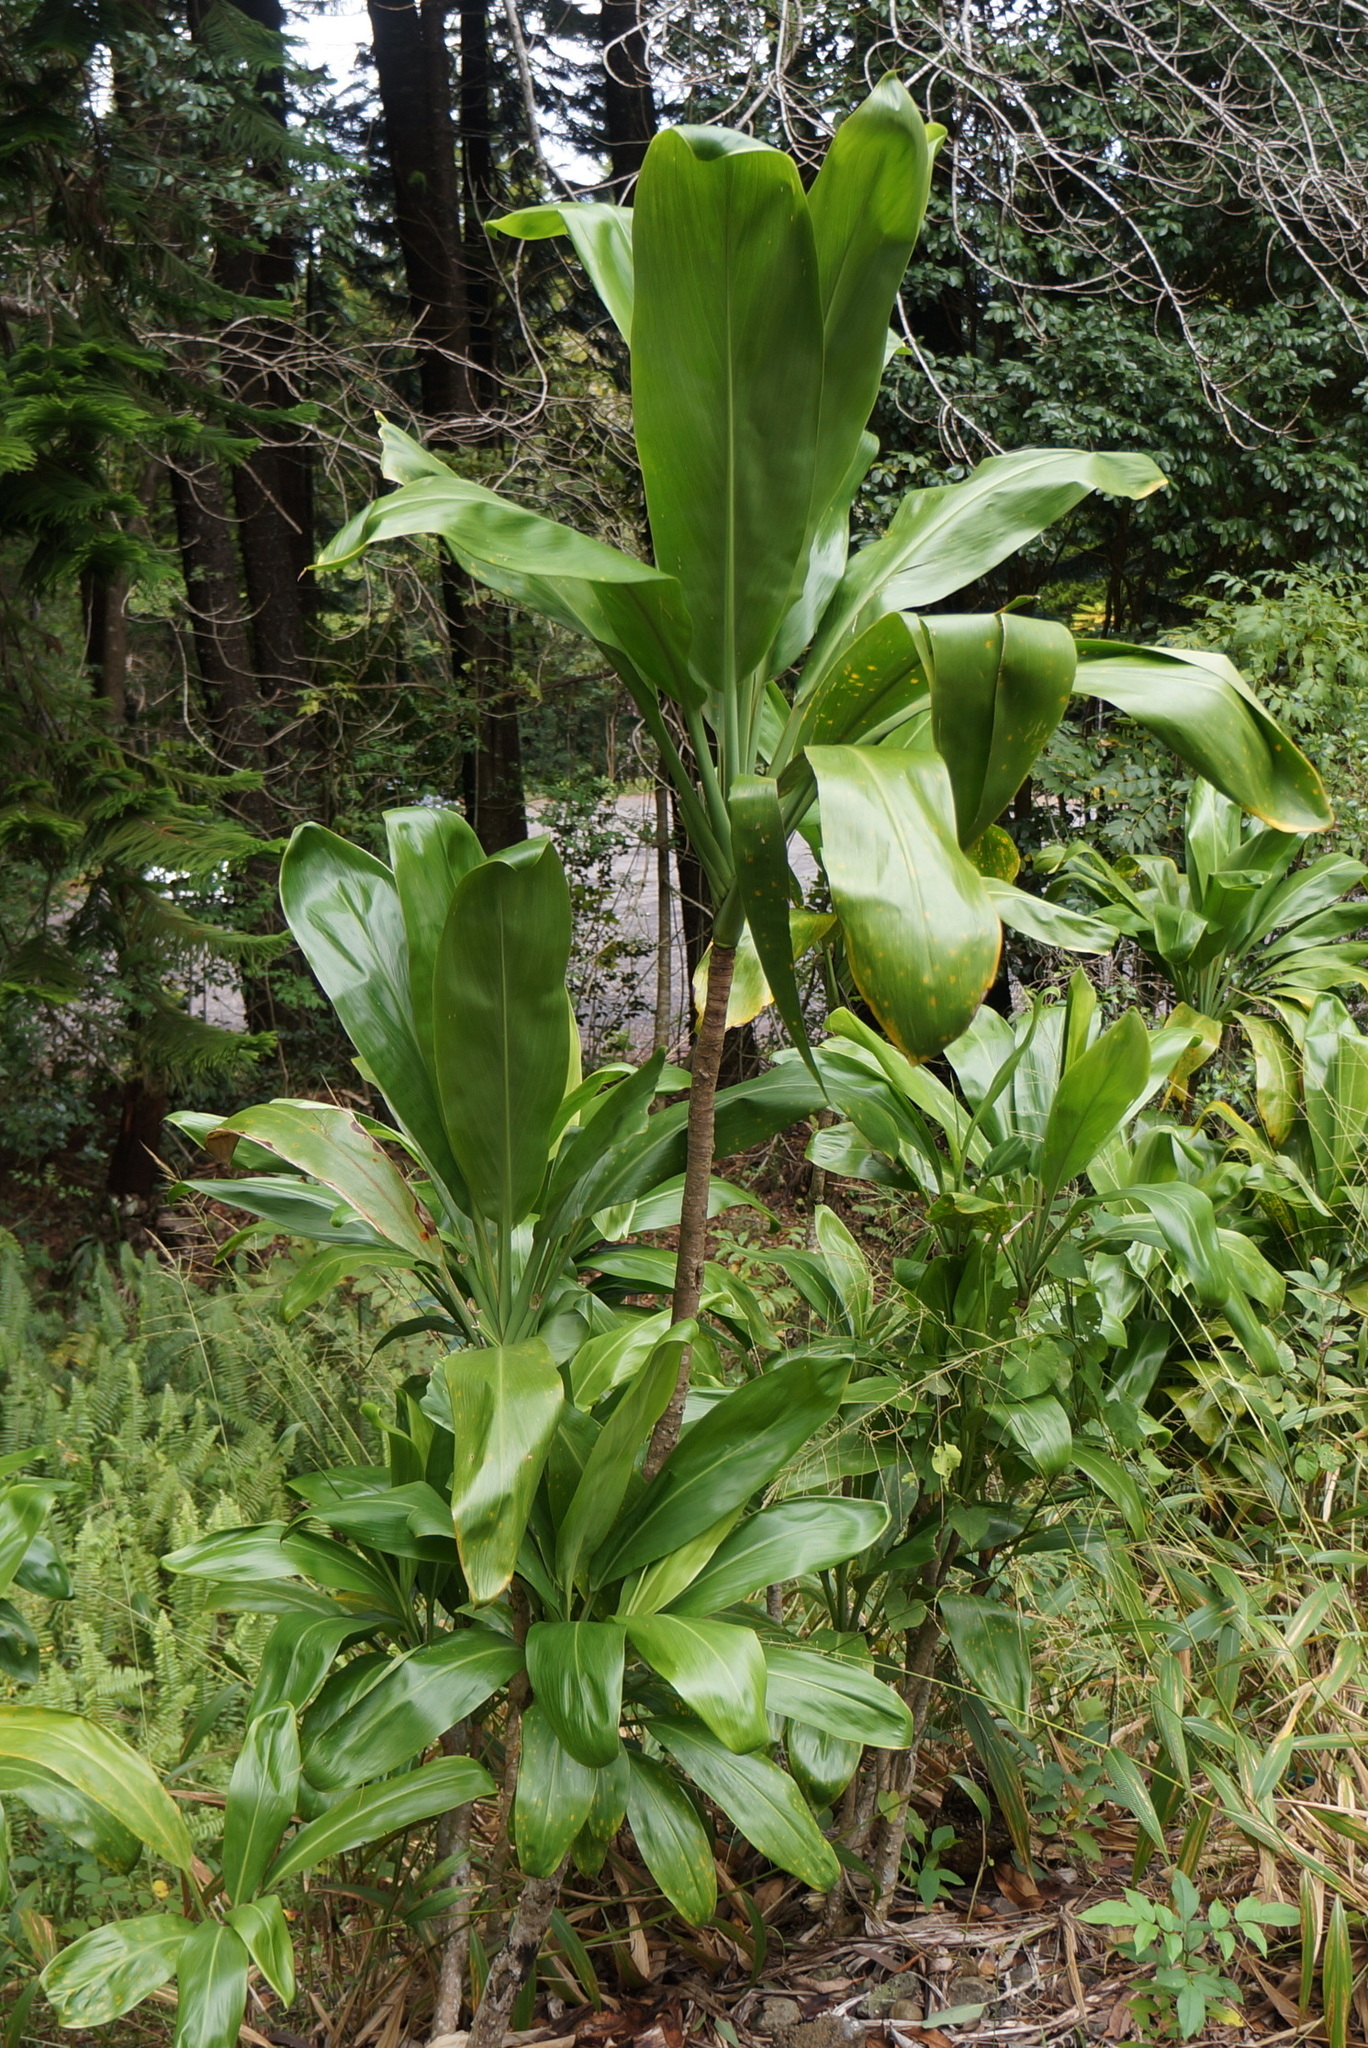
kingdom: Plantae
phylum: Tracheophyta
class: Liliopsida
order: Asparagales
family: Asparagaceae
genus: Cordyline
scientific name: Cordyline fruticosa
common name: Good-luck-plant
